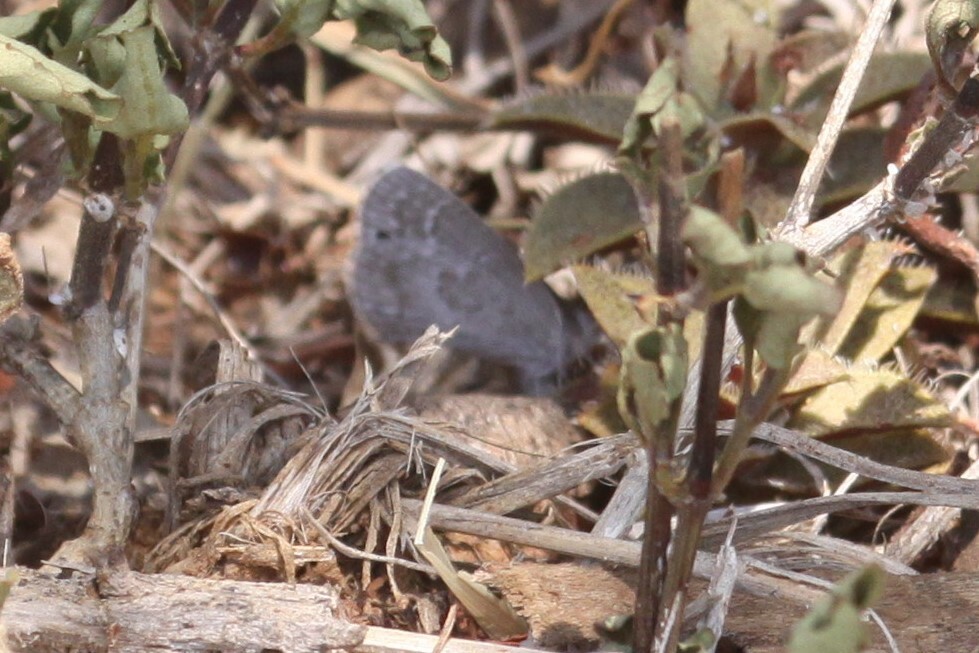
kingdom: Animalia
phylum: Arthropoda
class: Insecta
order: Lepidoptera
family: Lycaenidae
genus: Leptomyrina
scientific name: Leptomyrina henningi
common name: Henning's black-eye
